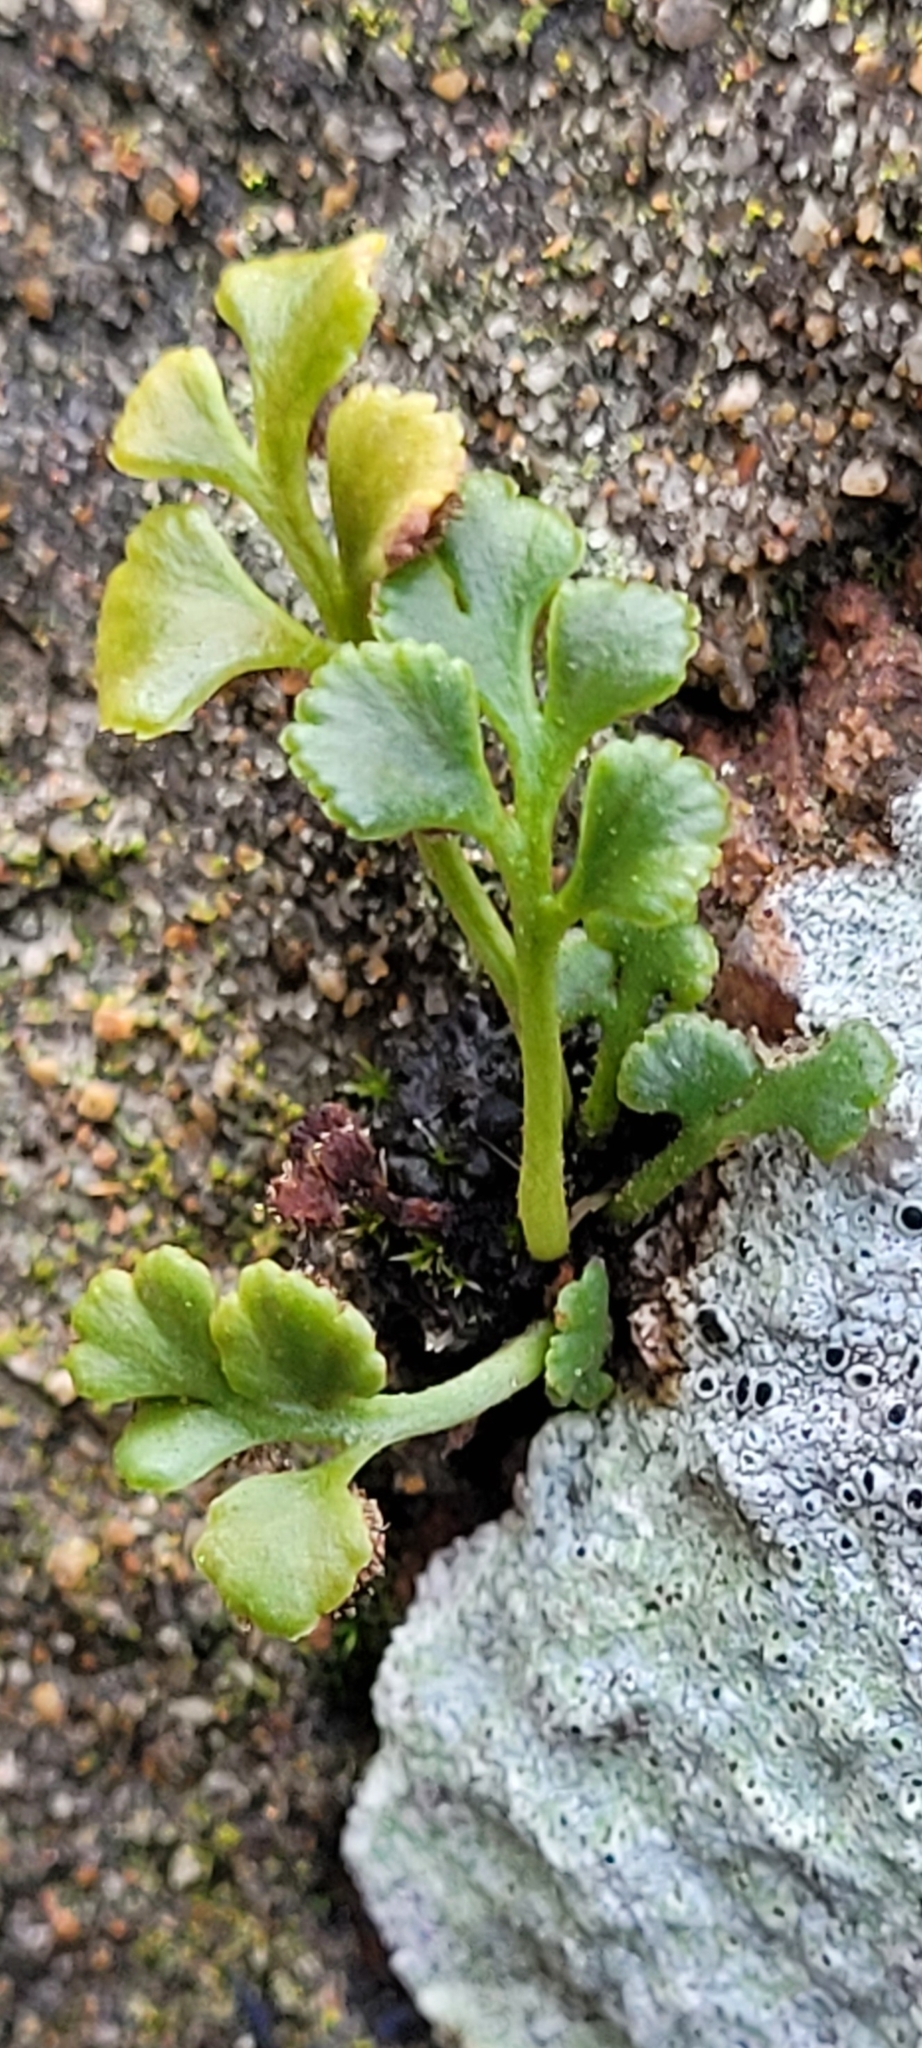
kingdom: Plantae
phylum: Tracheophyta
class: Polypodiopsida
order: Polypodiales
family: Aspleniaceae
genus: Asplenium
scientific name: Asplenium ruta-muraria
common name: Wall-rue
